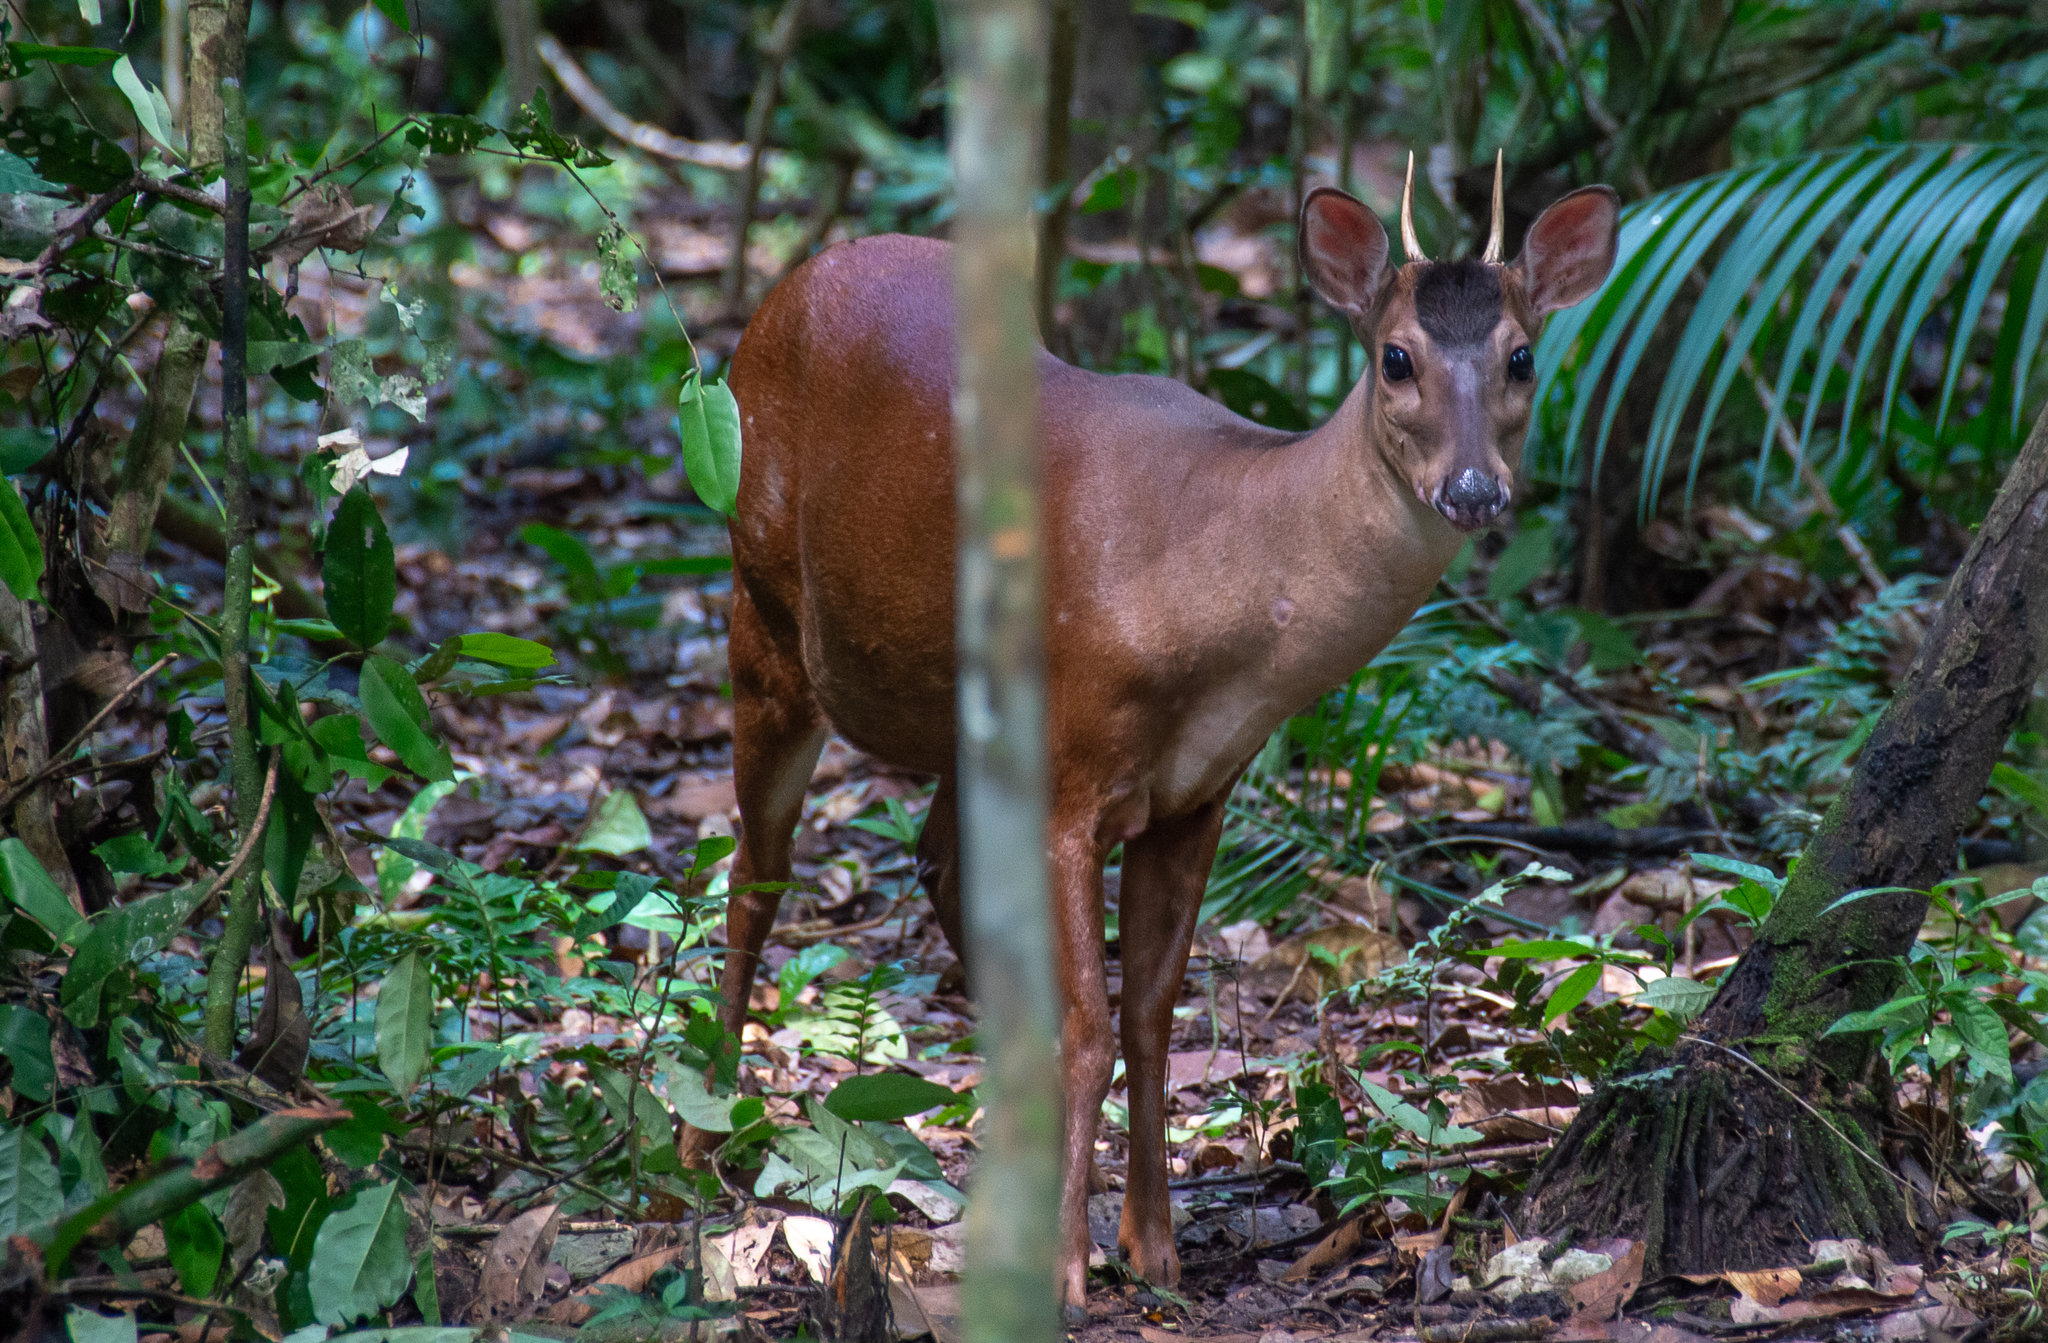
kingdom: Animalia
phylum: Chordata
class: Mammalia
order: Artiodactyla
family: Cervidae
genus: Mazama
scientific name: Mazama americana
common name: Red brocket
